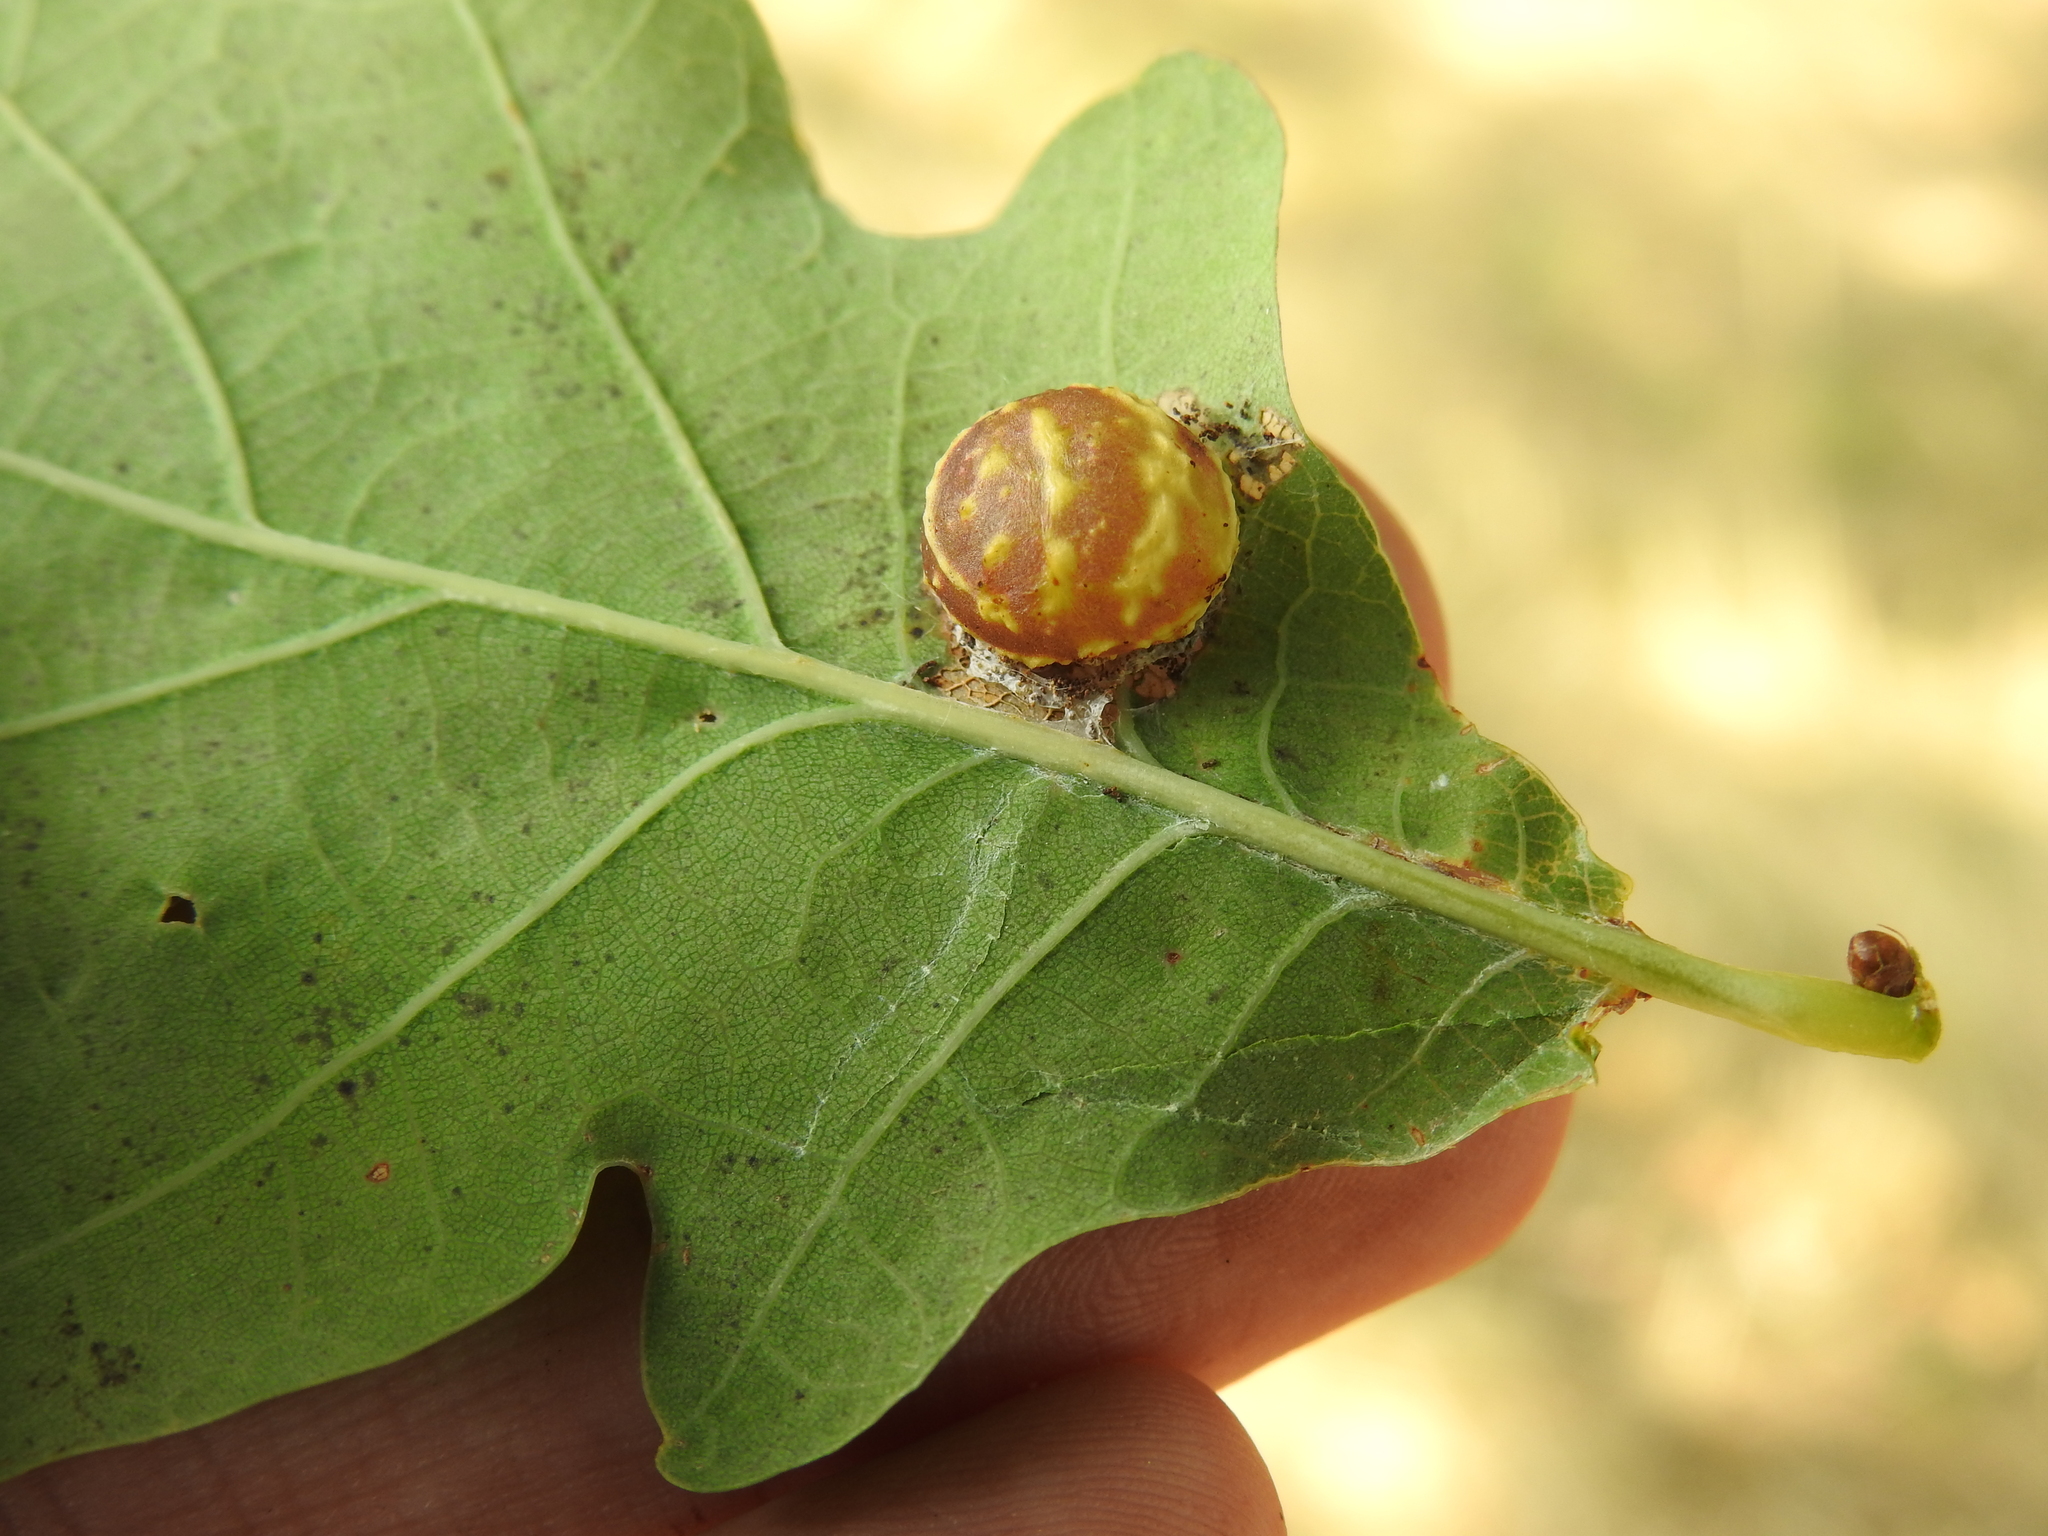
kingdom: Animalia
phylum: Arthropoda
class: Insecta
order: Hymenoptera
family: Cynipidae
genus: Cynips
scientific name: Cynips longiventris
